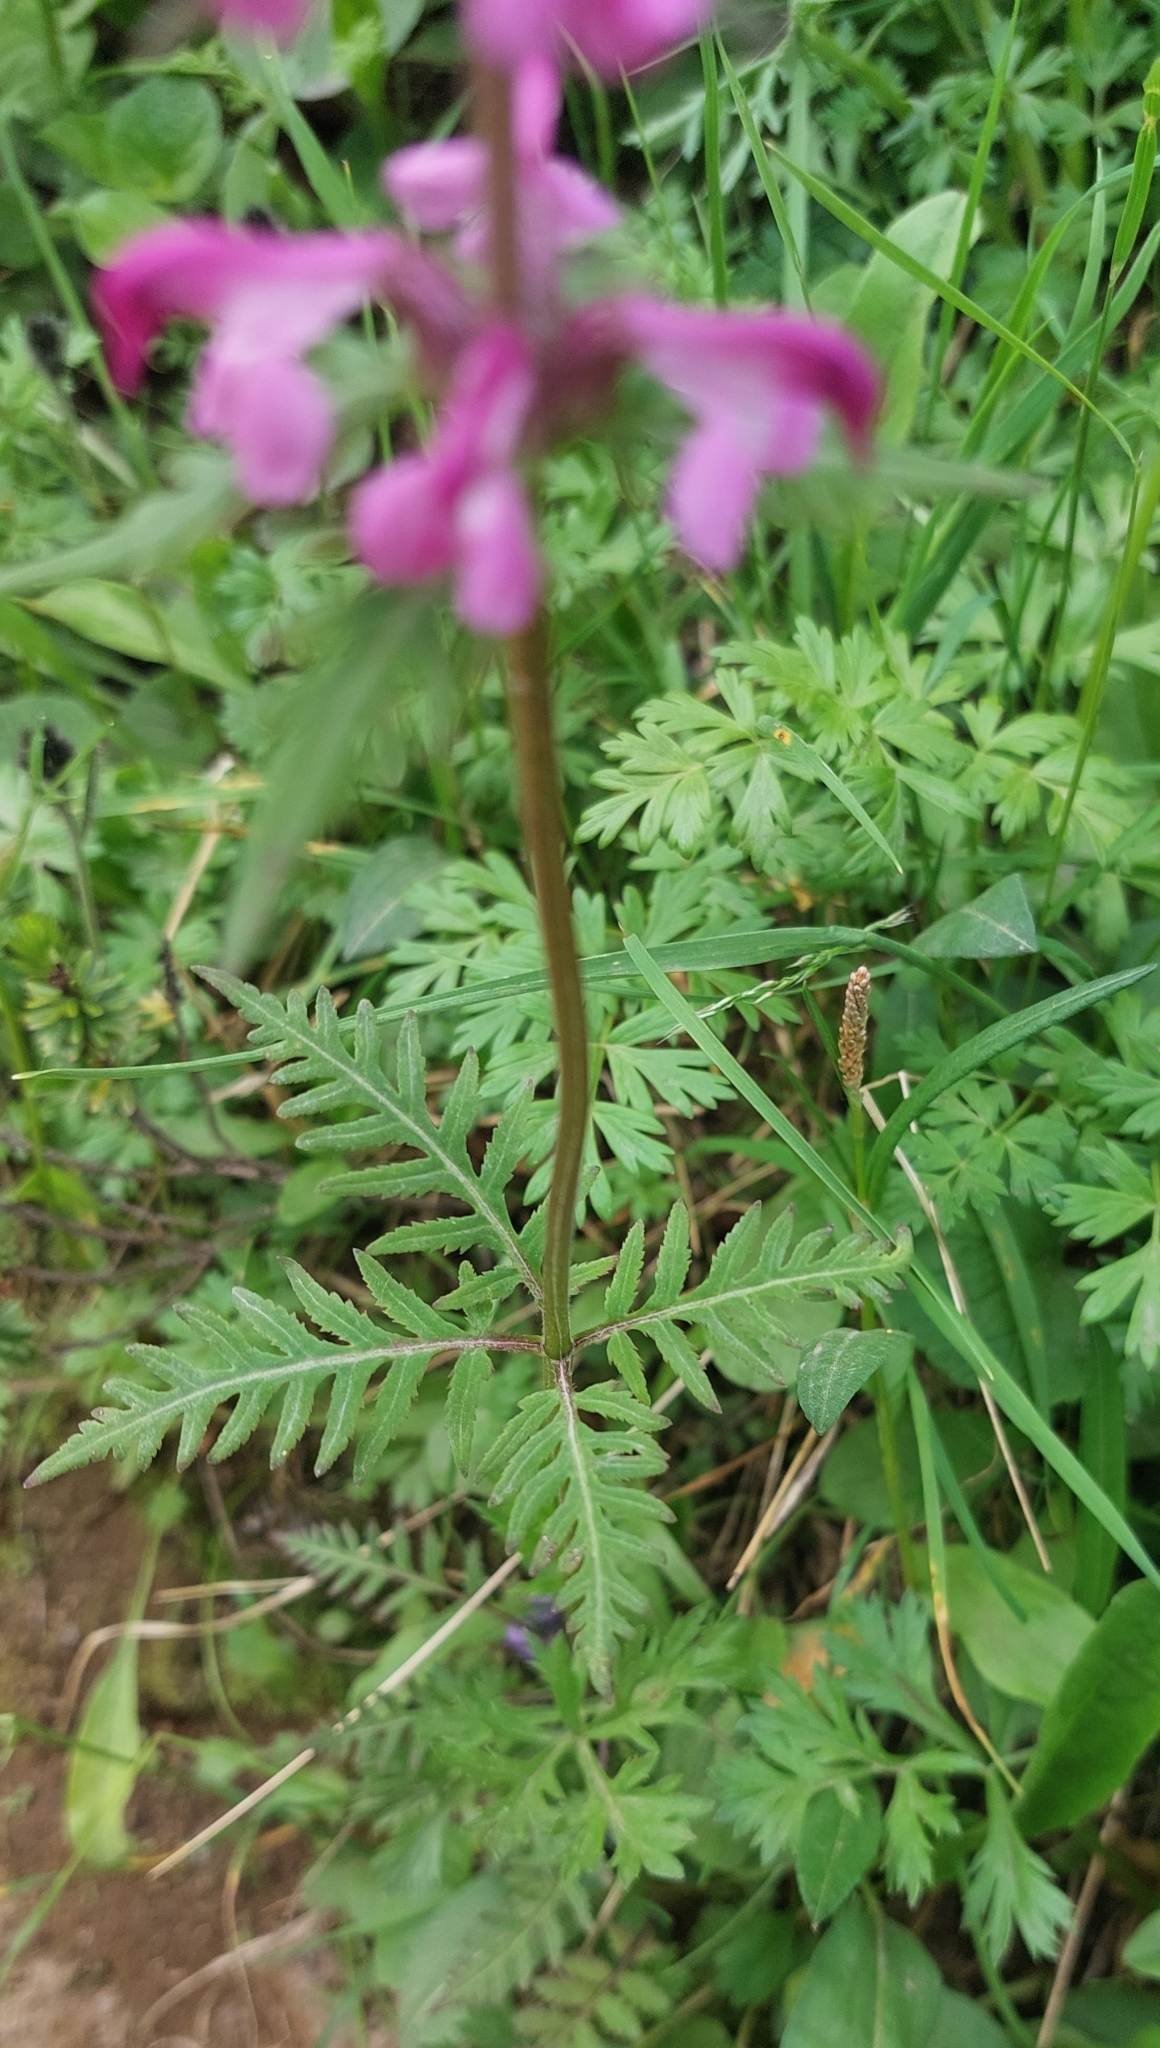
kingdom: Plantae
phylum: Tracheophyta
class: Magnoliopsida
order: Lamiales
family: Orobanchaceae
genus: Pedicularis
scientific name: Pedicularis chamissonis
